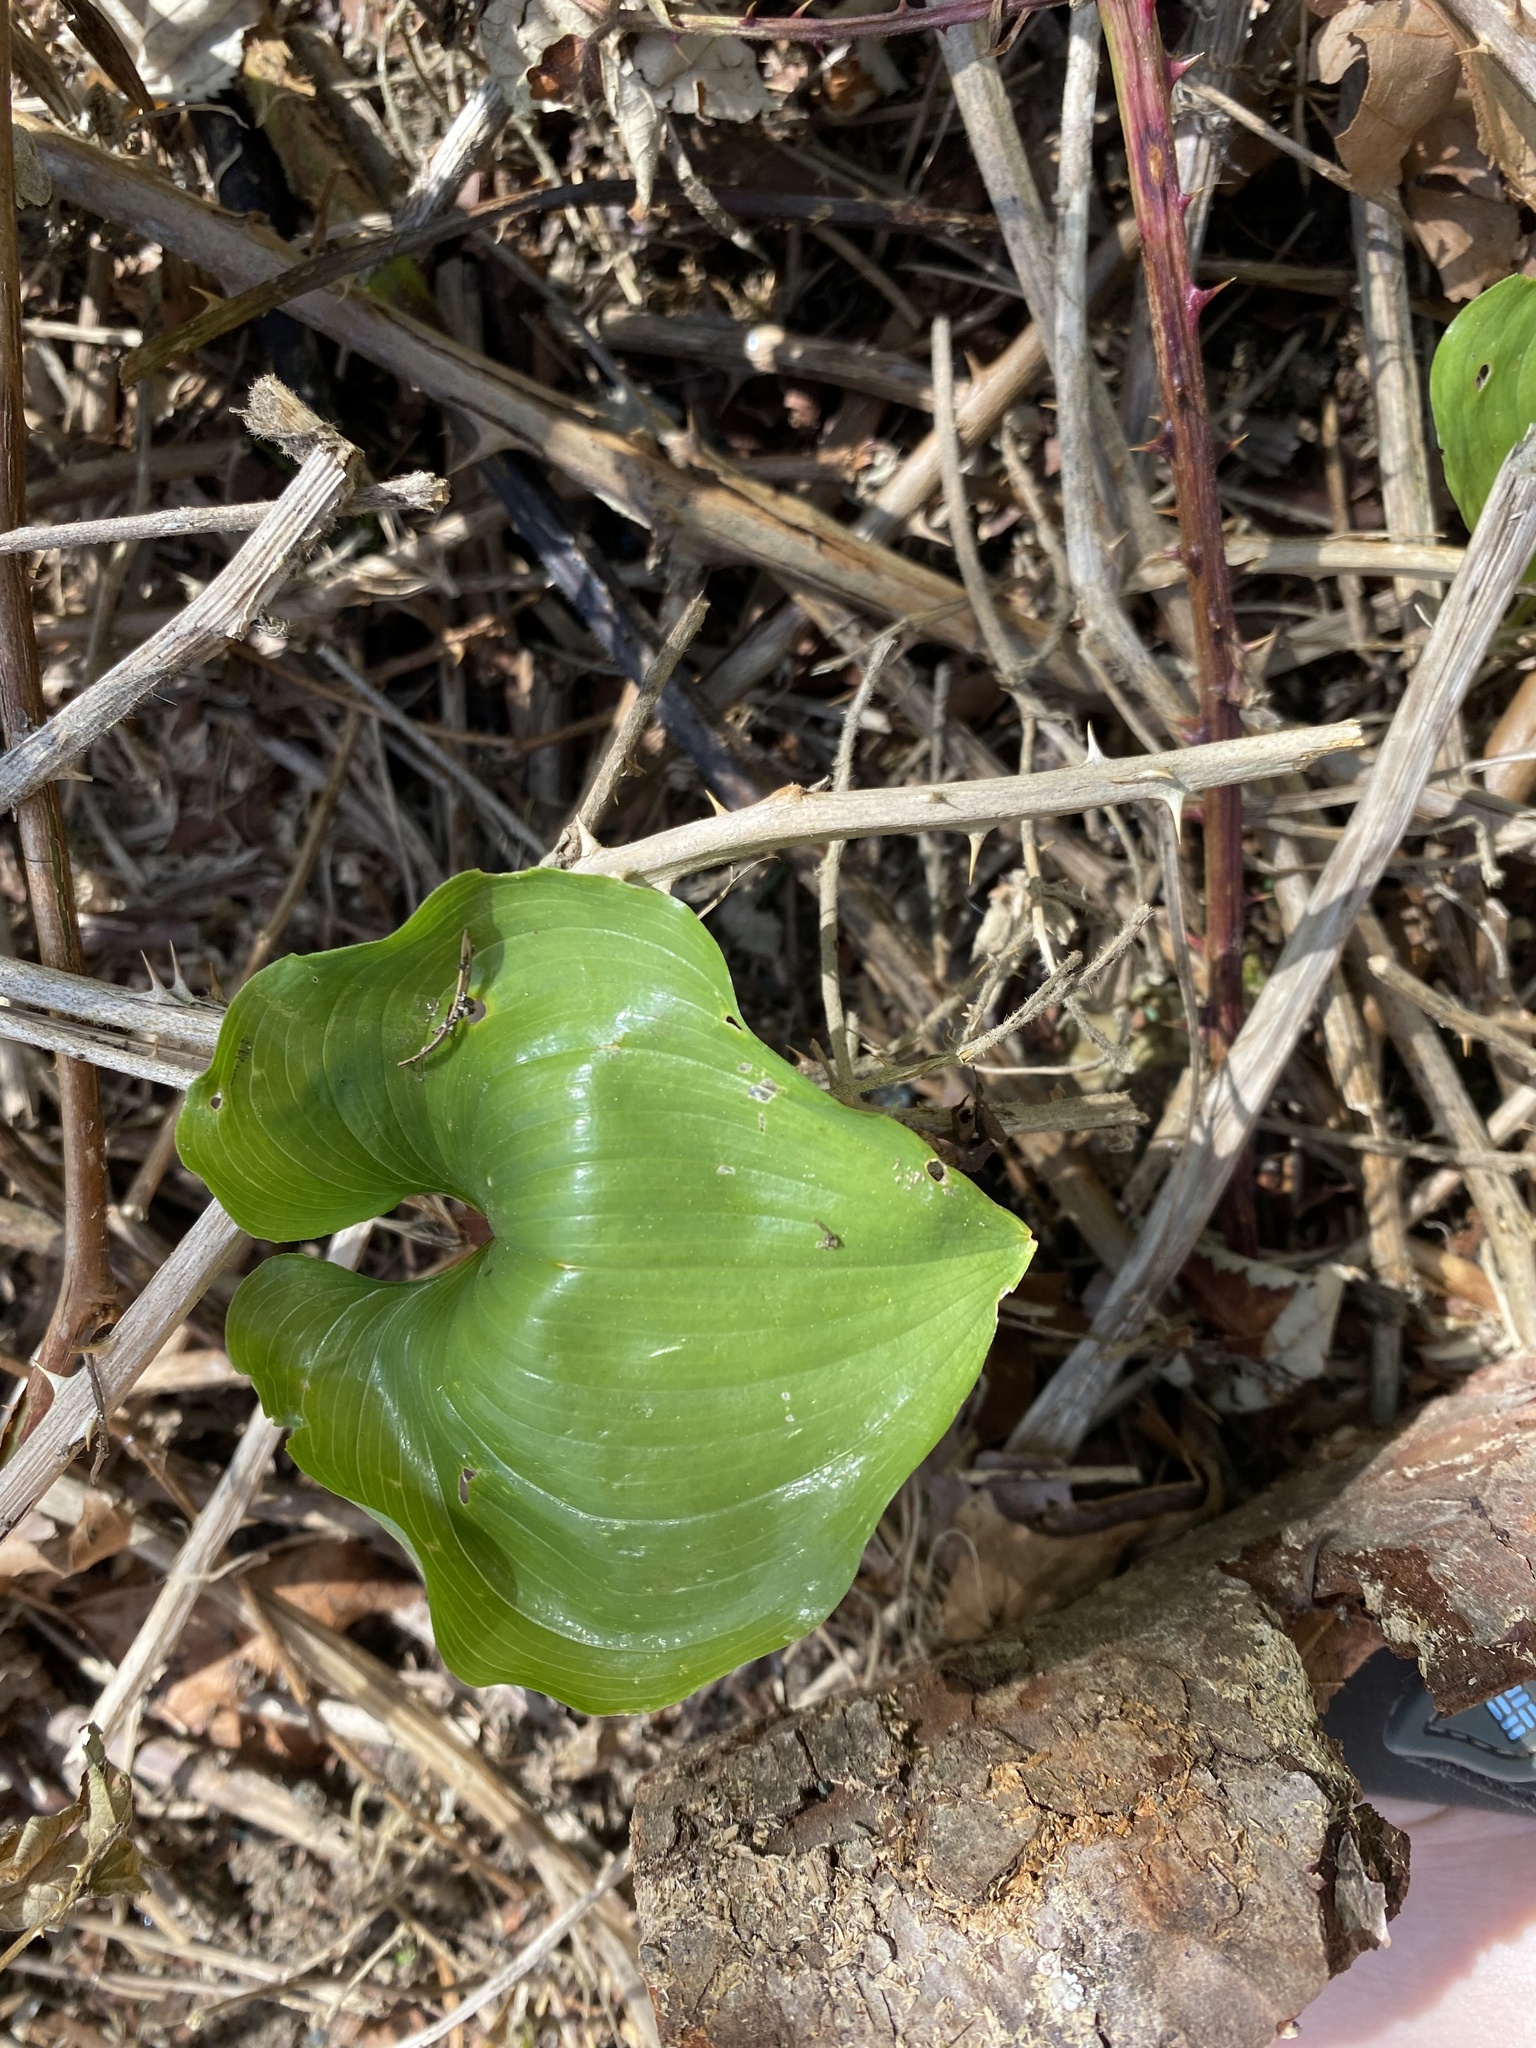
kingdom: Plantae
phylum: Tracheophyta
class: Liliopsida
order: Asparagales
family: Asparagaceae
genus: Maianthemum
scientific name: Maianthemum dilatatum
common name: False lily-of-the-valley
